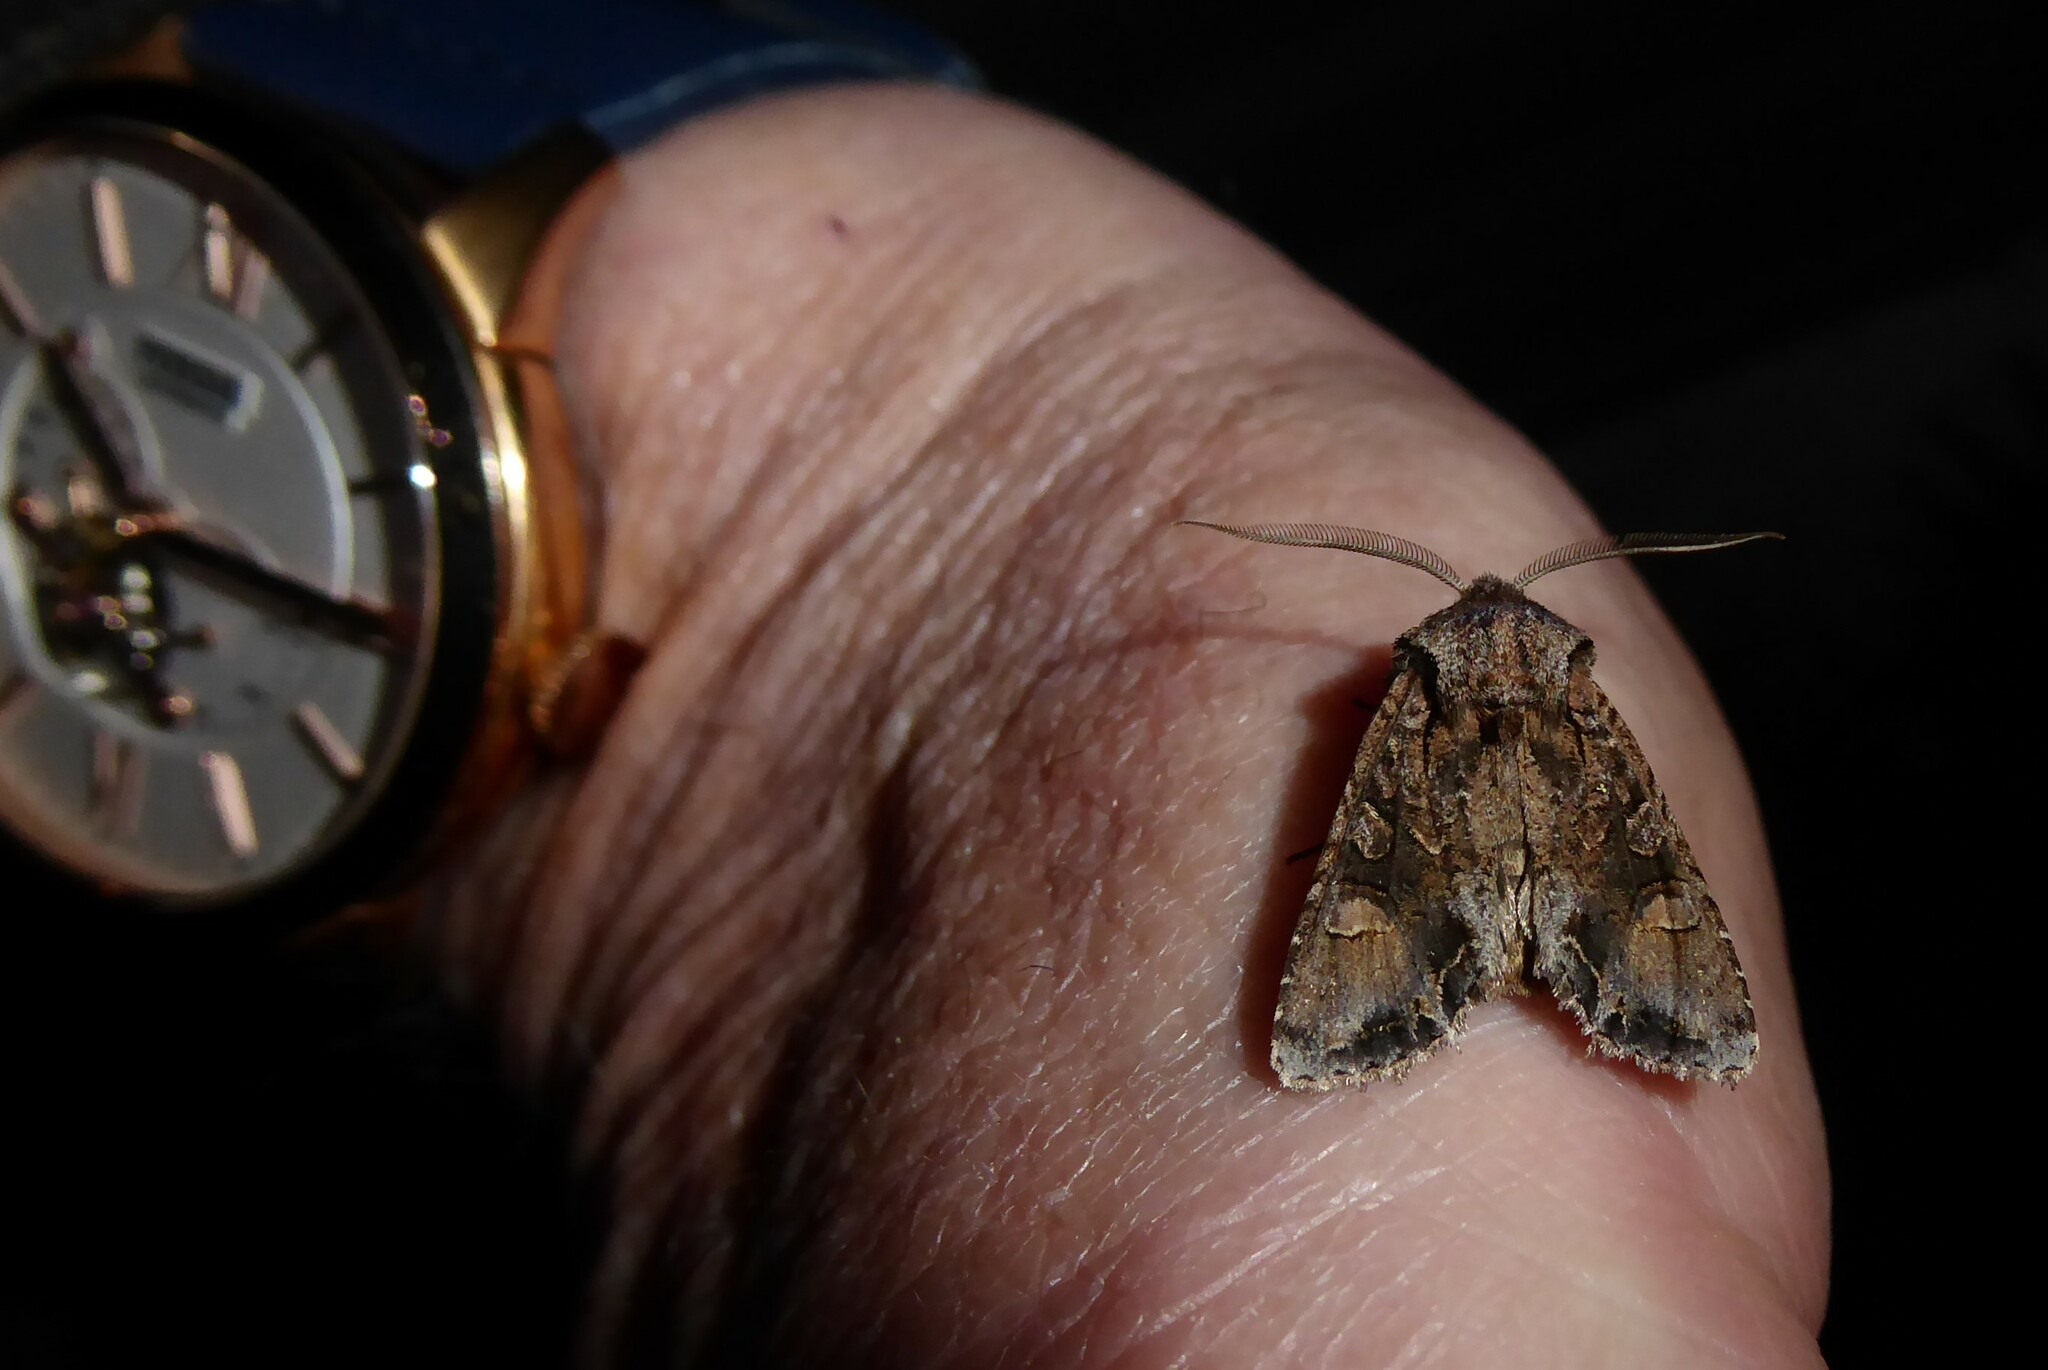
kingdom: Animalia
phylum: Arthropoda
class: Insecta
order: Lepidoptera
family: Noctuidae
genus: Ichneutica
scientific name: Ichneutica
